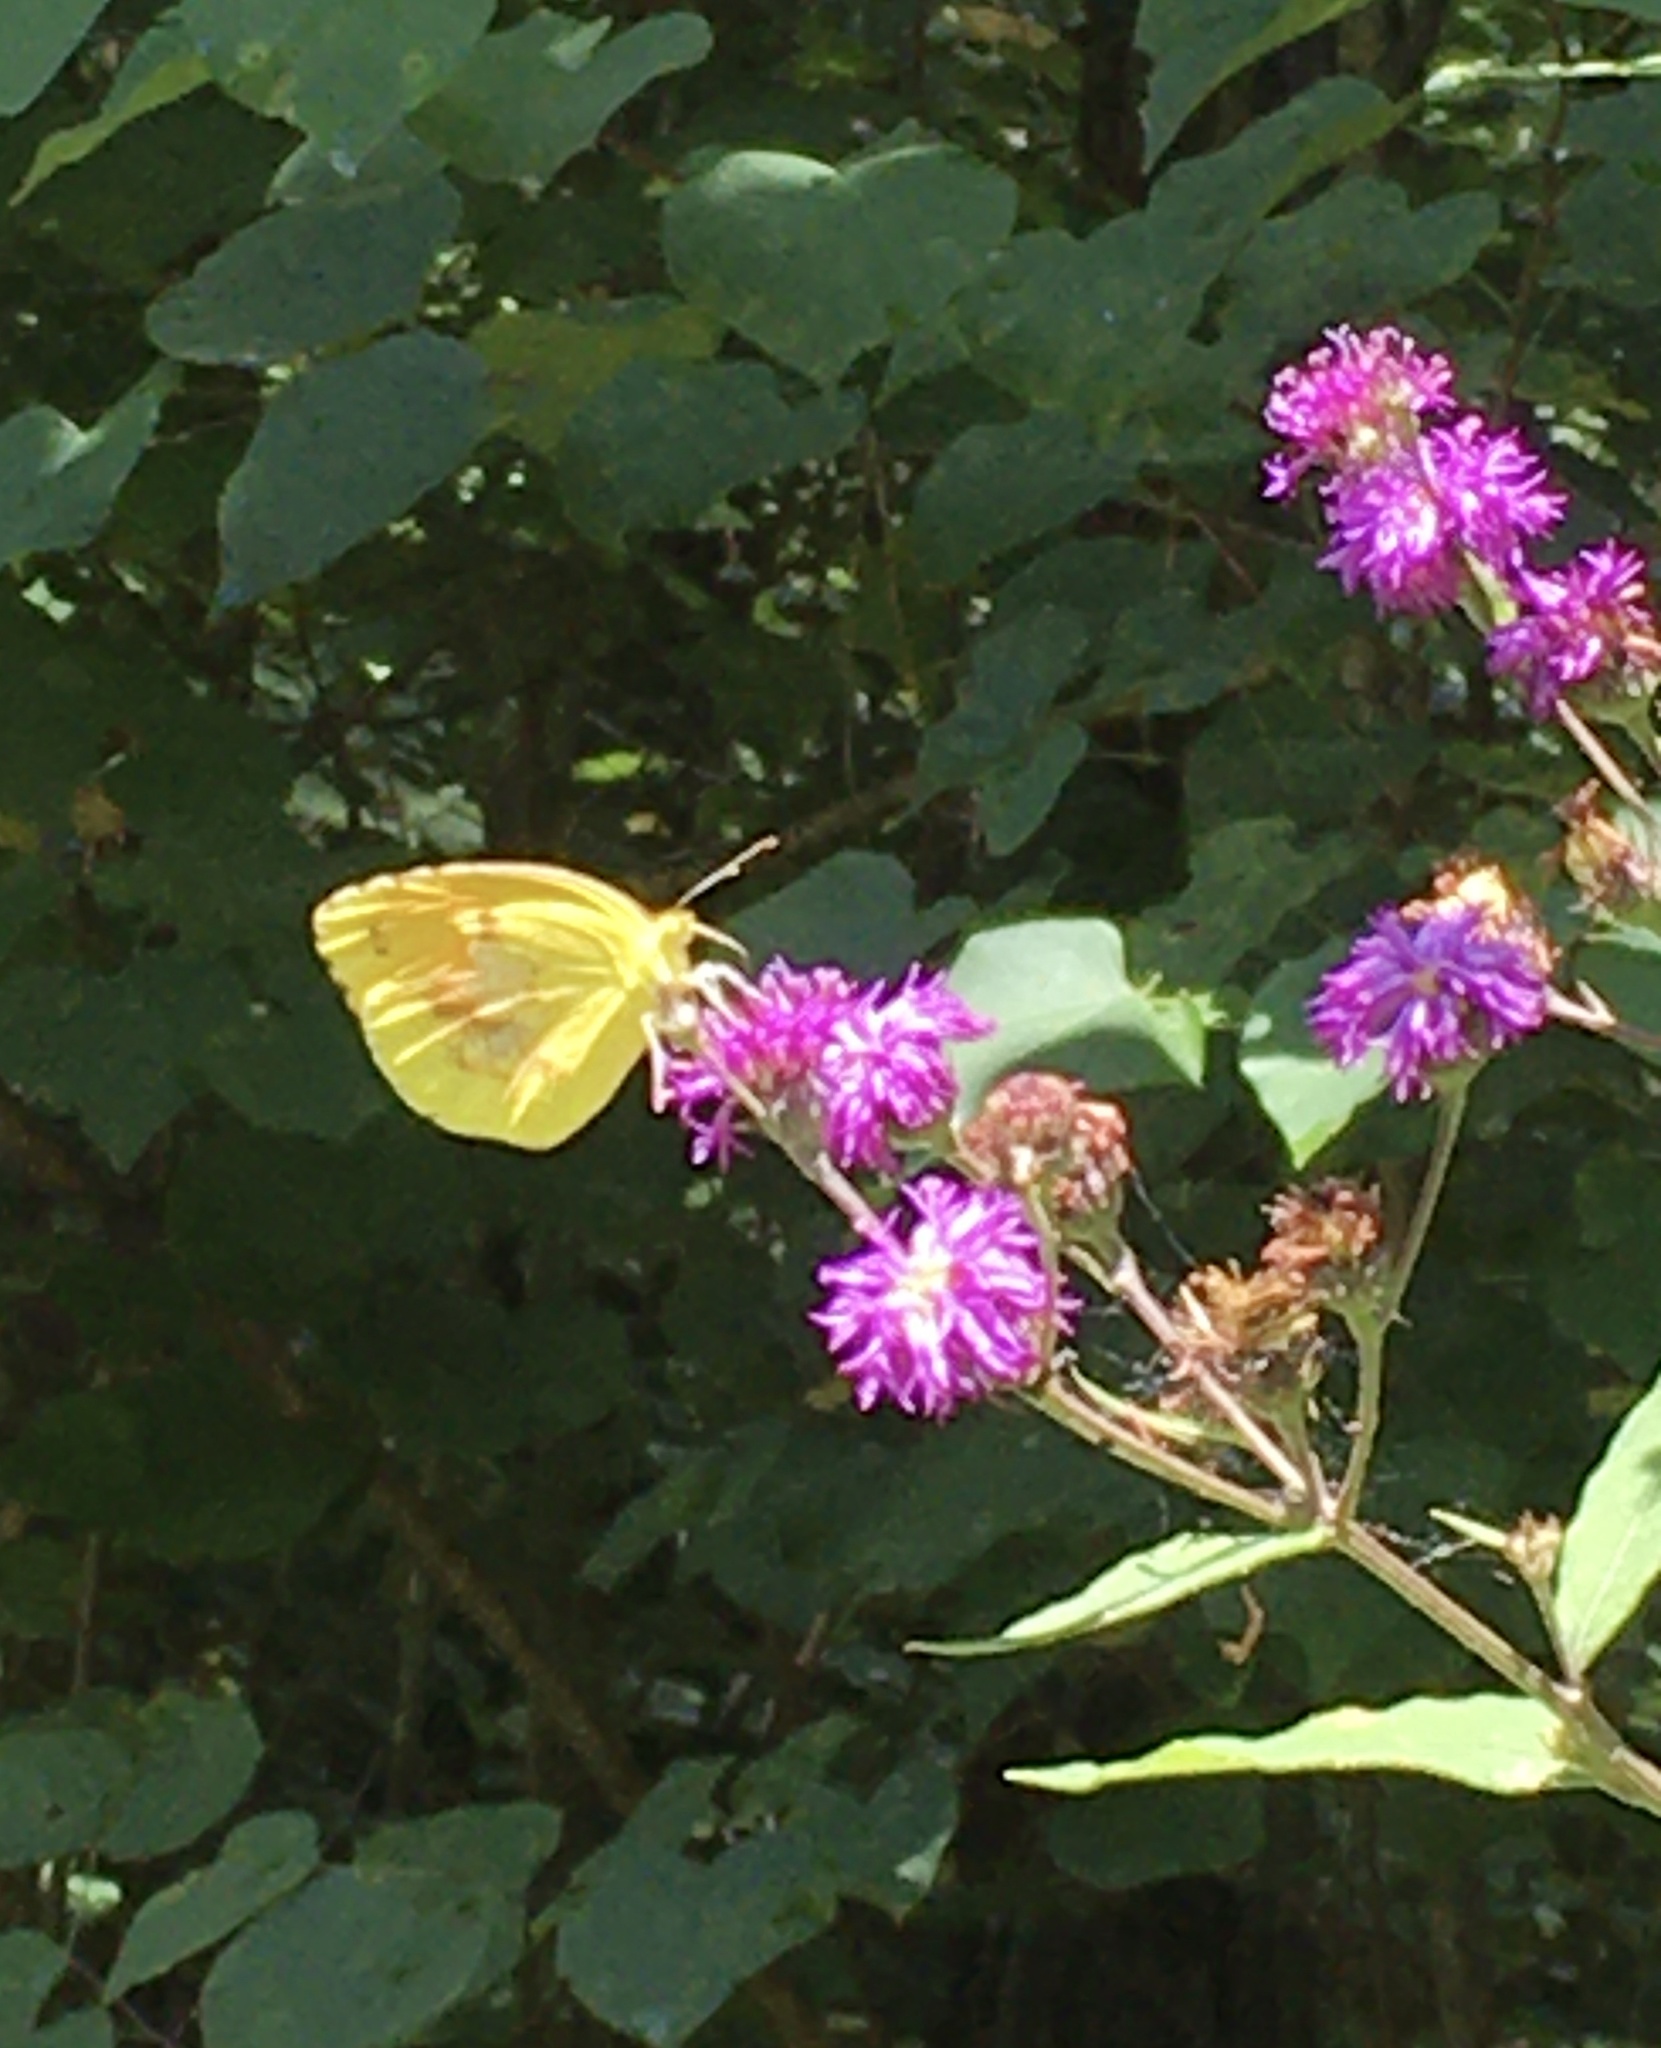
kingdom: Animalia
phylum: Arthropoda
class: Insecta
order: Lepidoptera
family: Pieridae
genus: Abaeis
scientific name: Abaeis nicippe
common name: Sleepy orange
